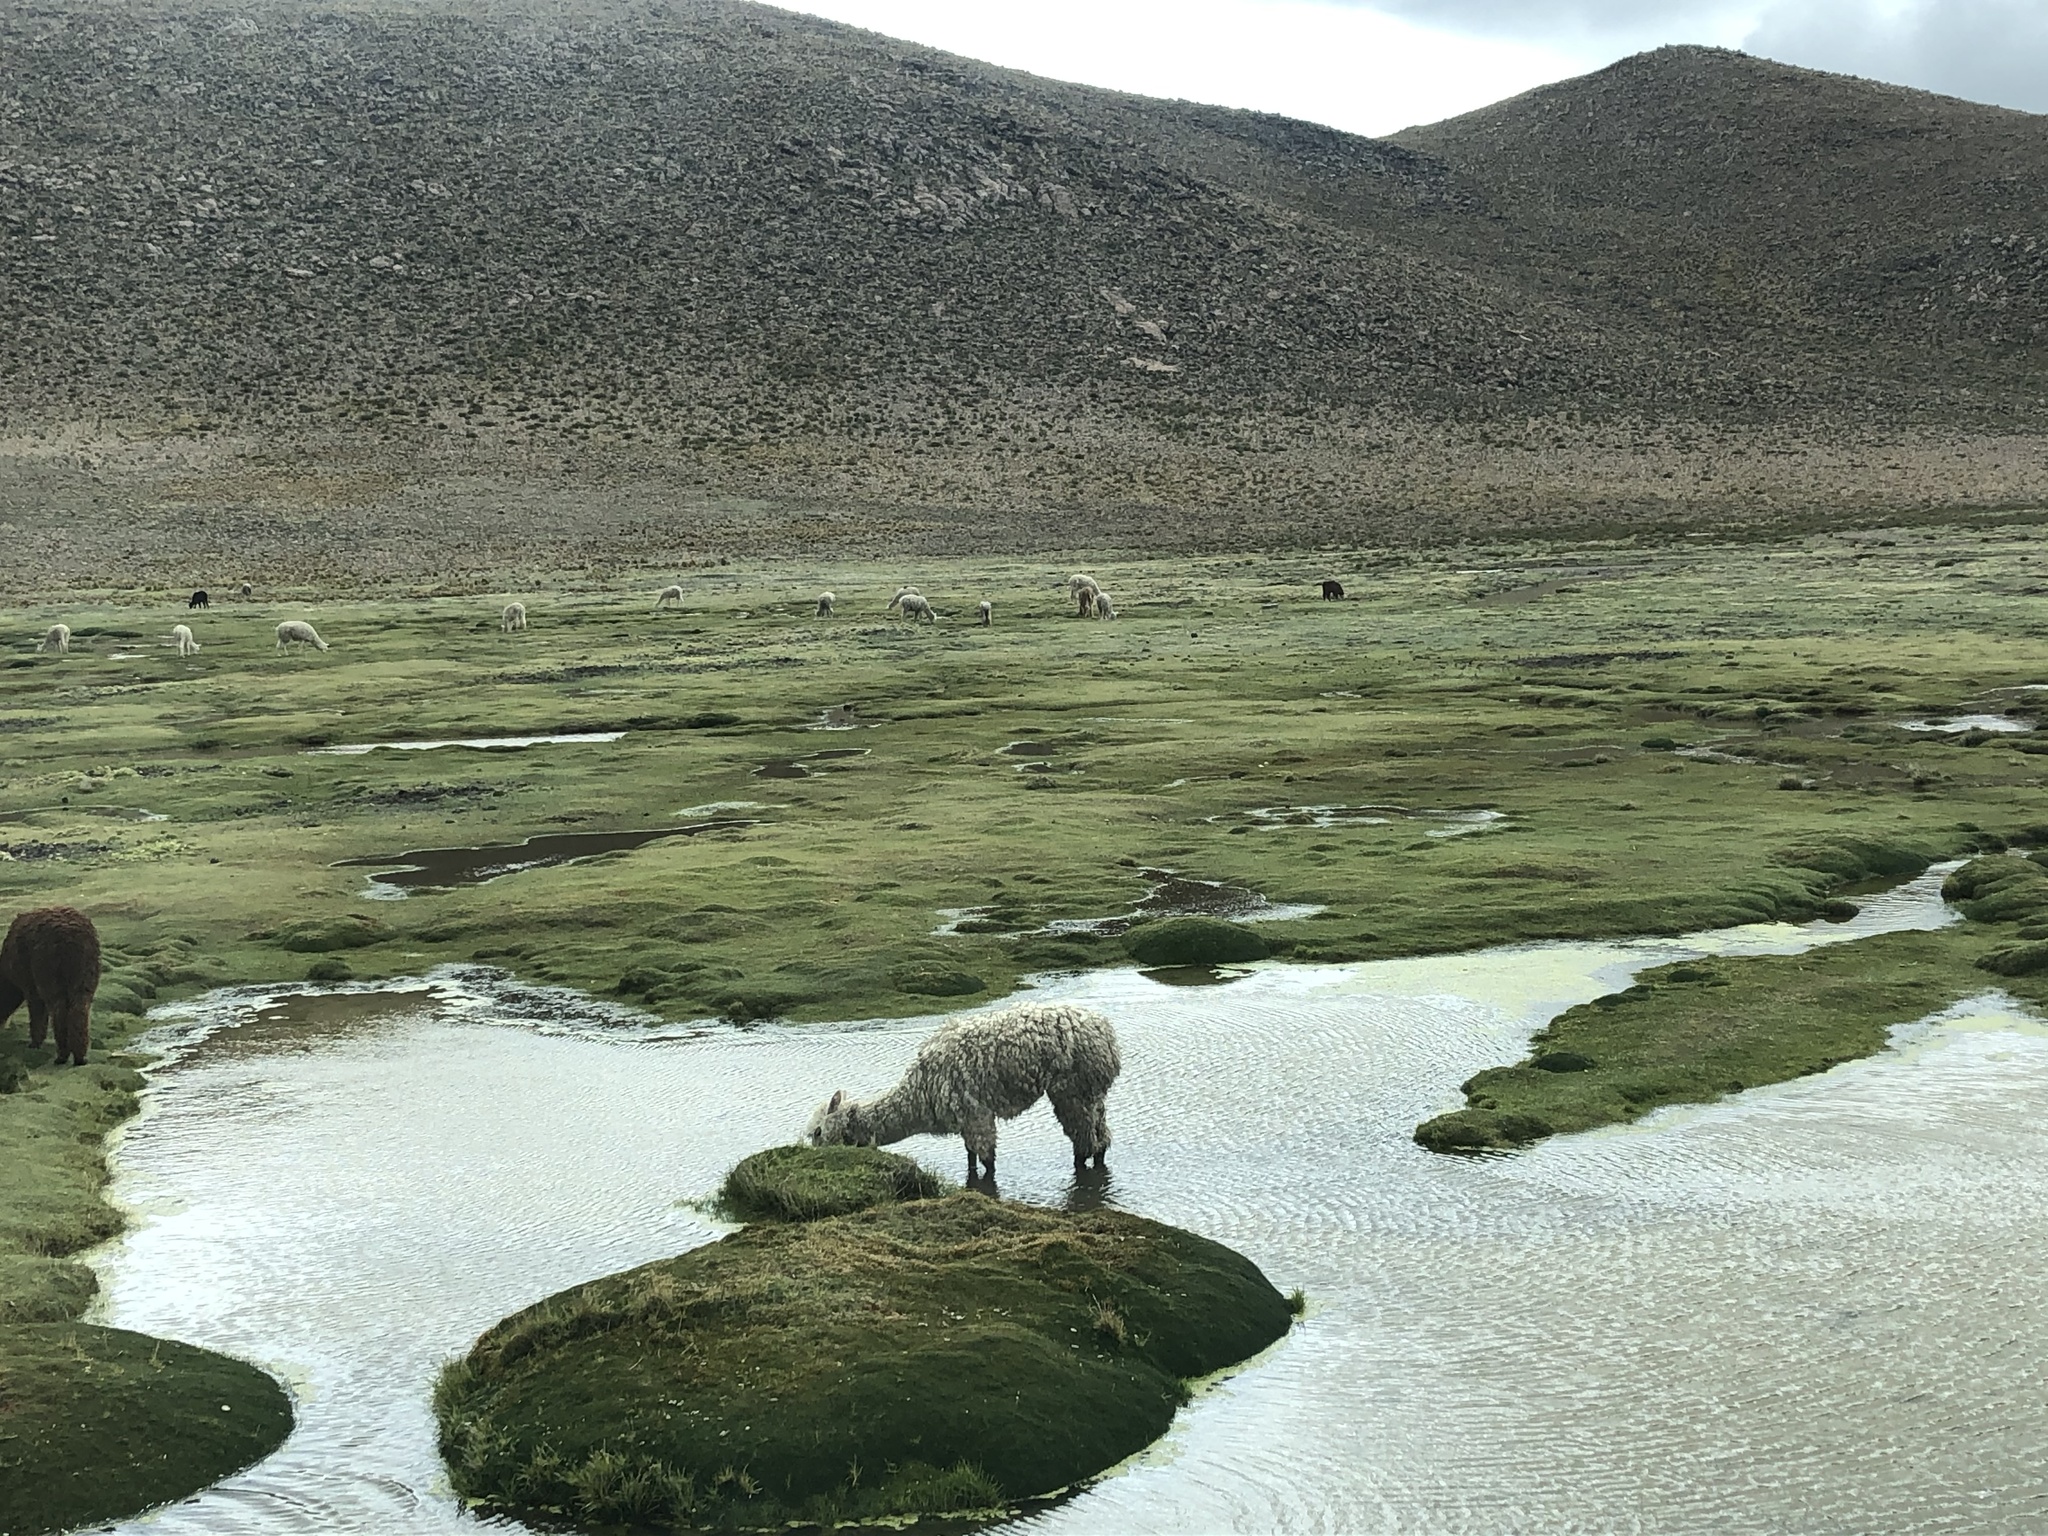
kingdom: Animalia
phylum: Chordata
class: Mammalia
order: Artiodactyla
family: Camelidae
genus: Vicugna
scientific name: Vicugna pacos
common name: Alpaca
